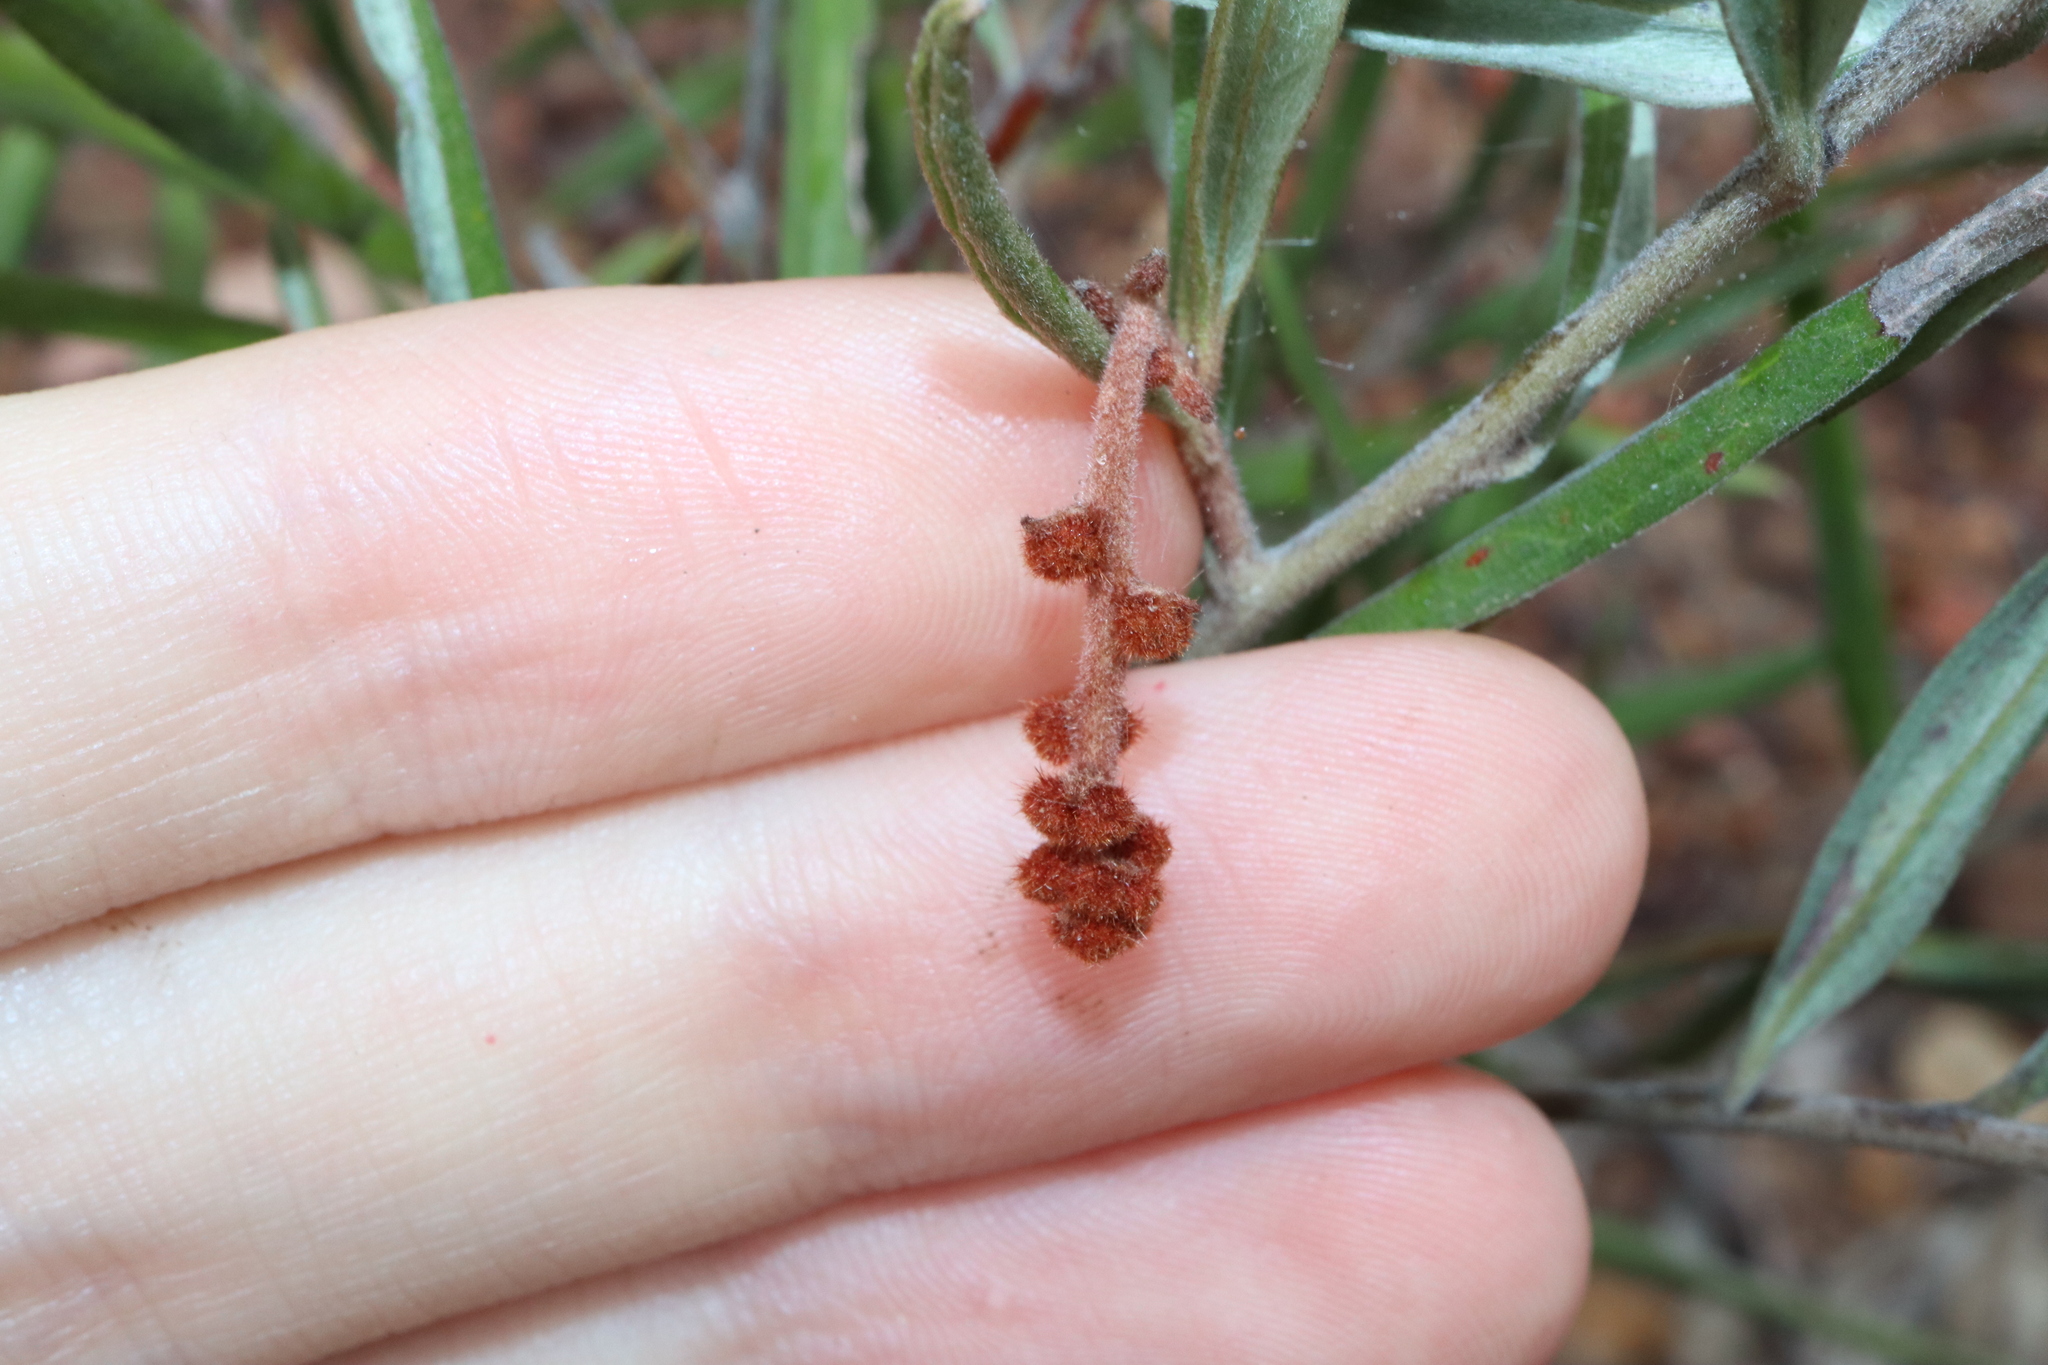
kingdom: Plantae
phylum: Tracheophyta
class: Magnoliopsida
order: Proteales
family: Proteaceae
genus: Grevillea
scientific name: Grevillea floribunda
